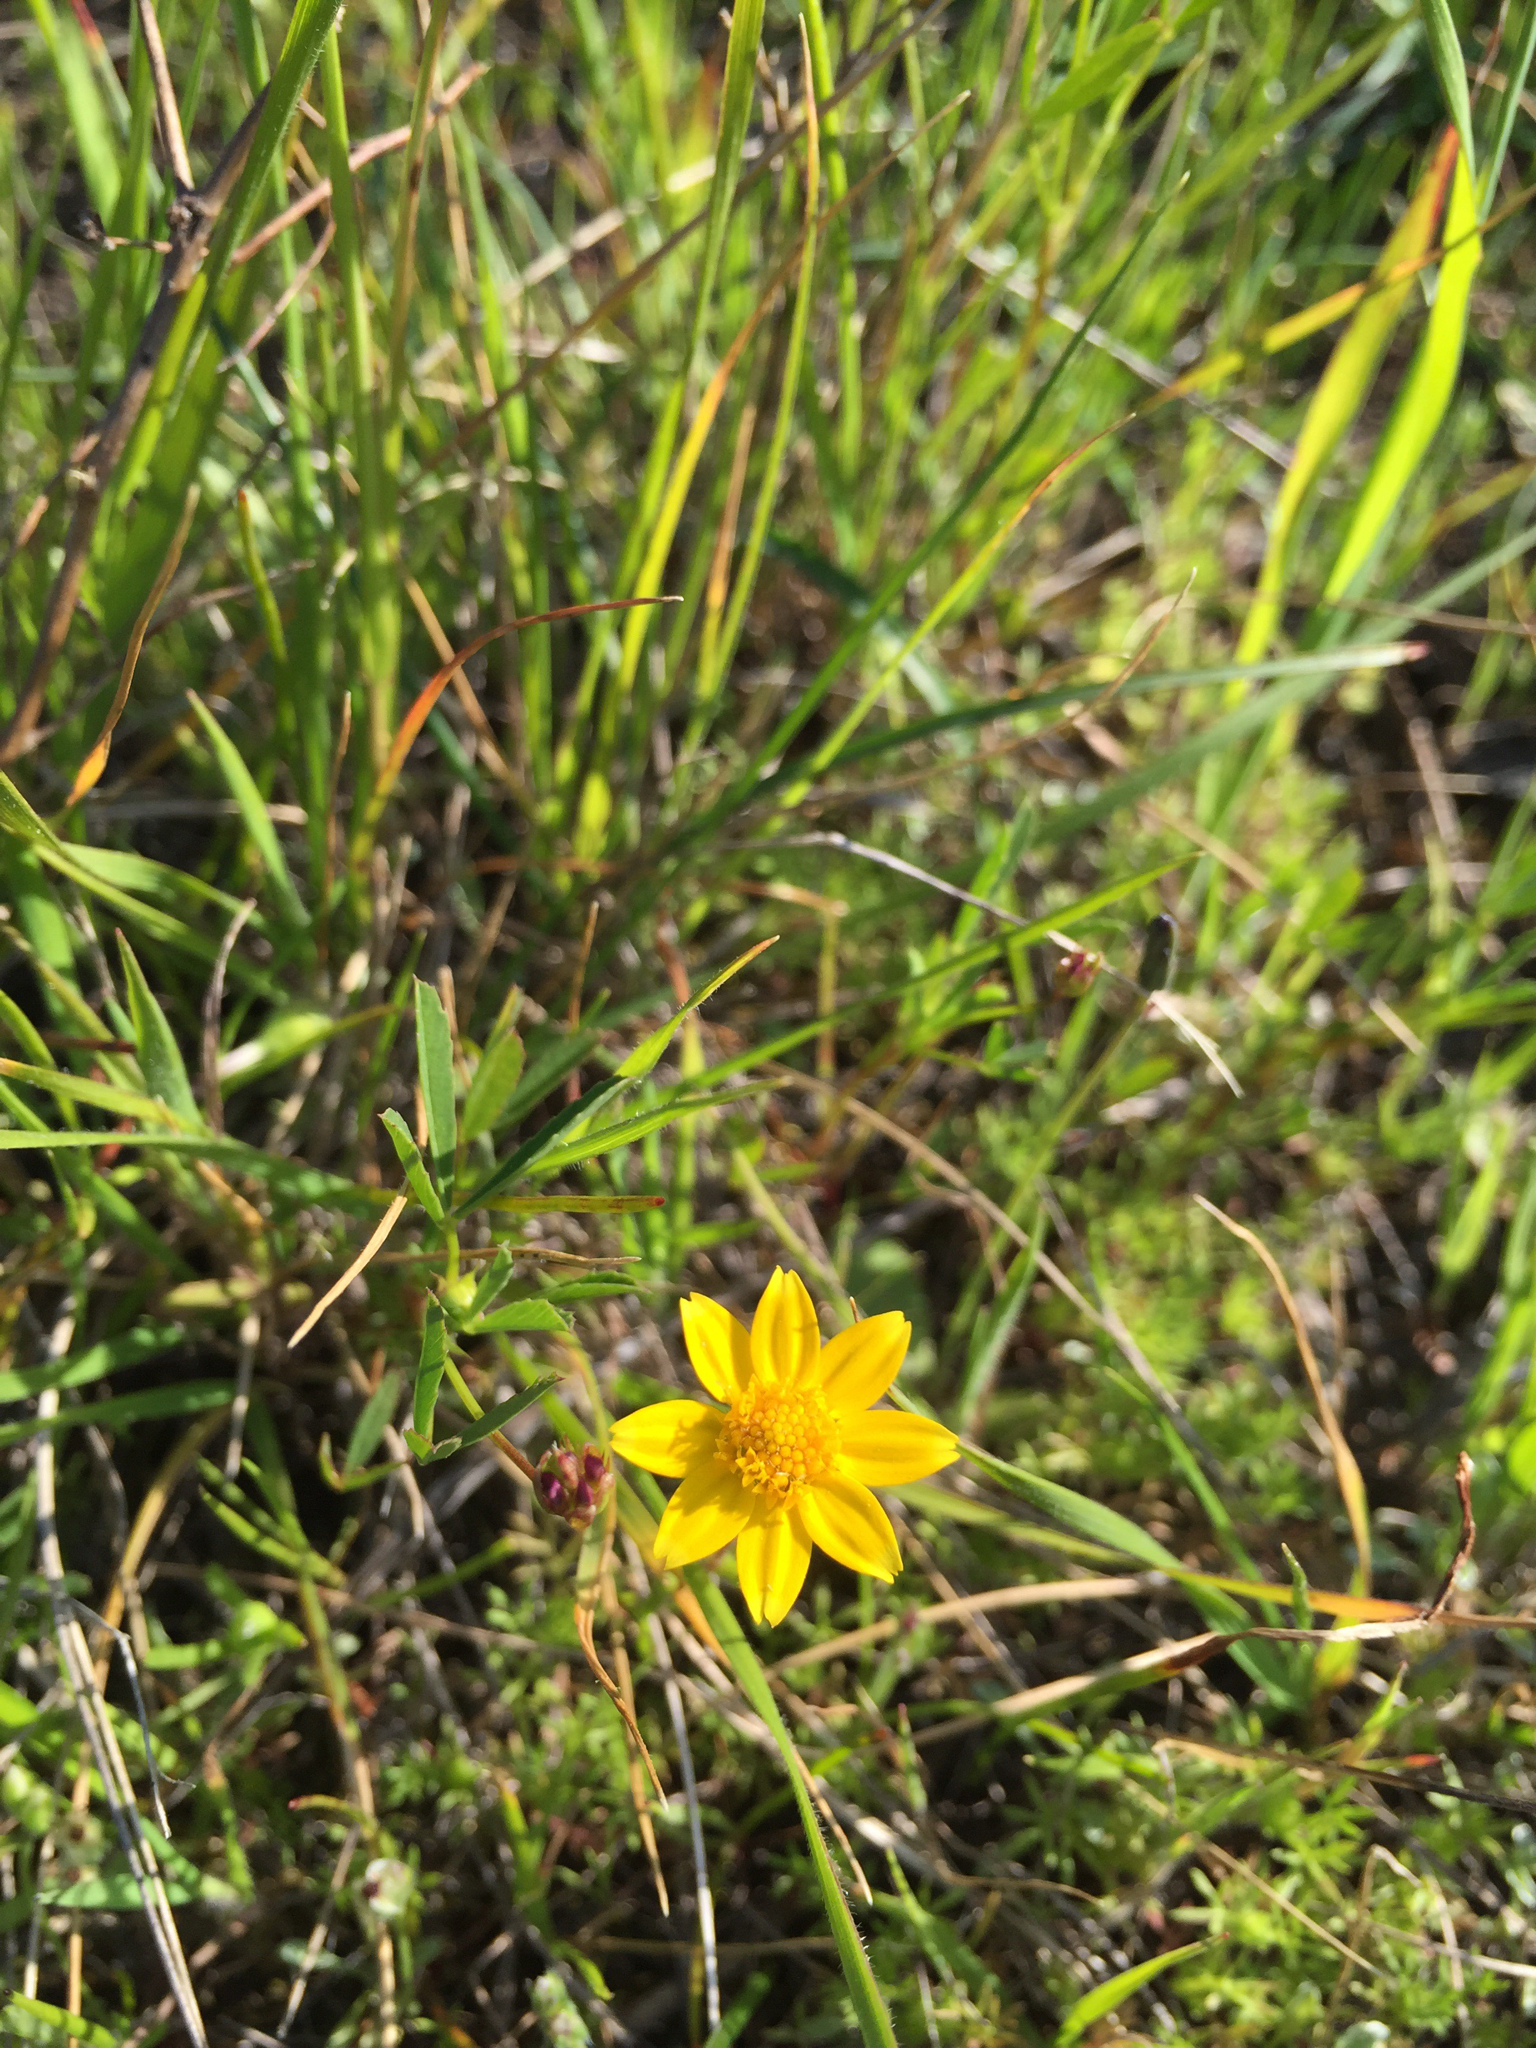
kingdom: Plantae
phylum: Tracheophyta
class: Magnoliopsida
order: Asterales
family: Asteraceae
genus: Lasthenia
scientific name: Lasthenia californica
